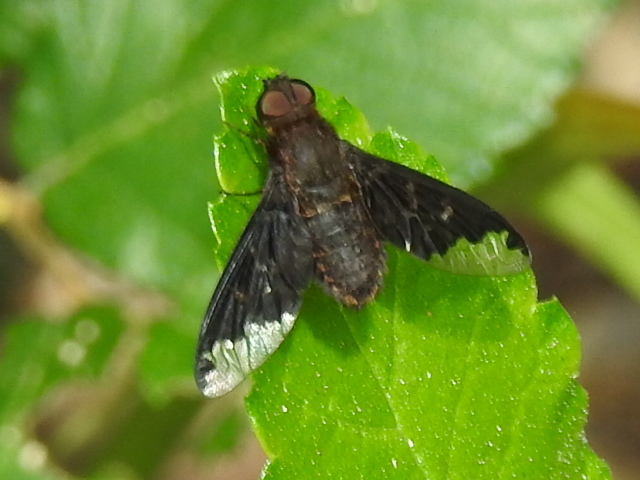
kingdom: Animalia
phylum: Arthropoda
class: Insecta
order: Diptera
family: Bombyliidae
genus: Hemipenthes
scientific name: Hemipenthes sinuosus
